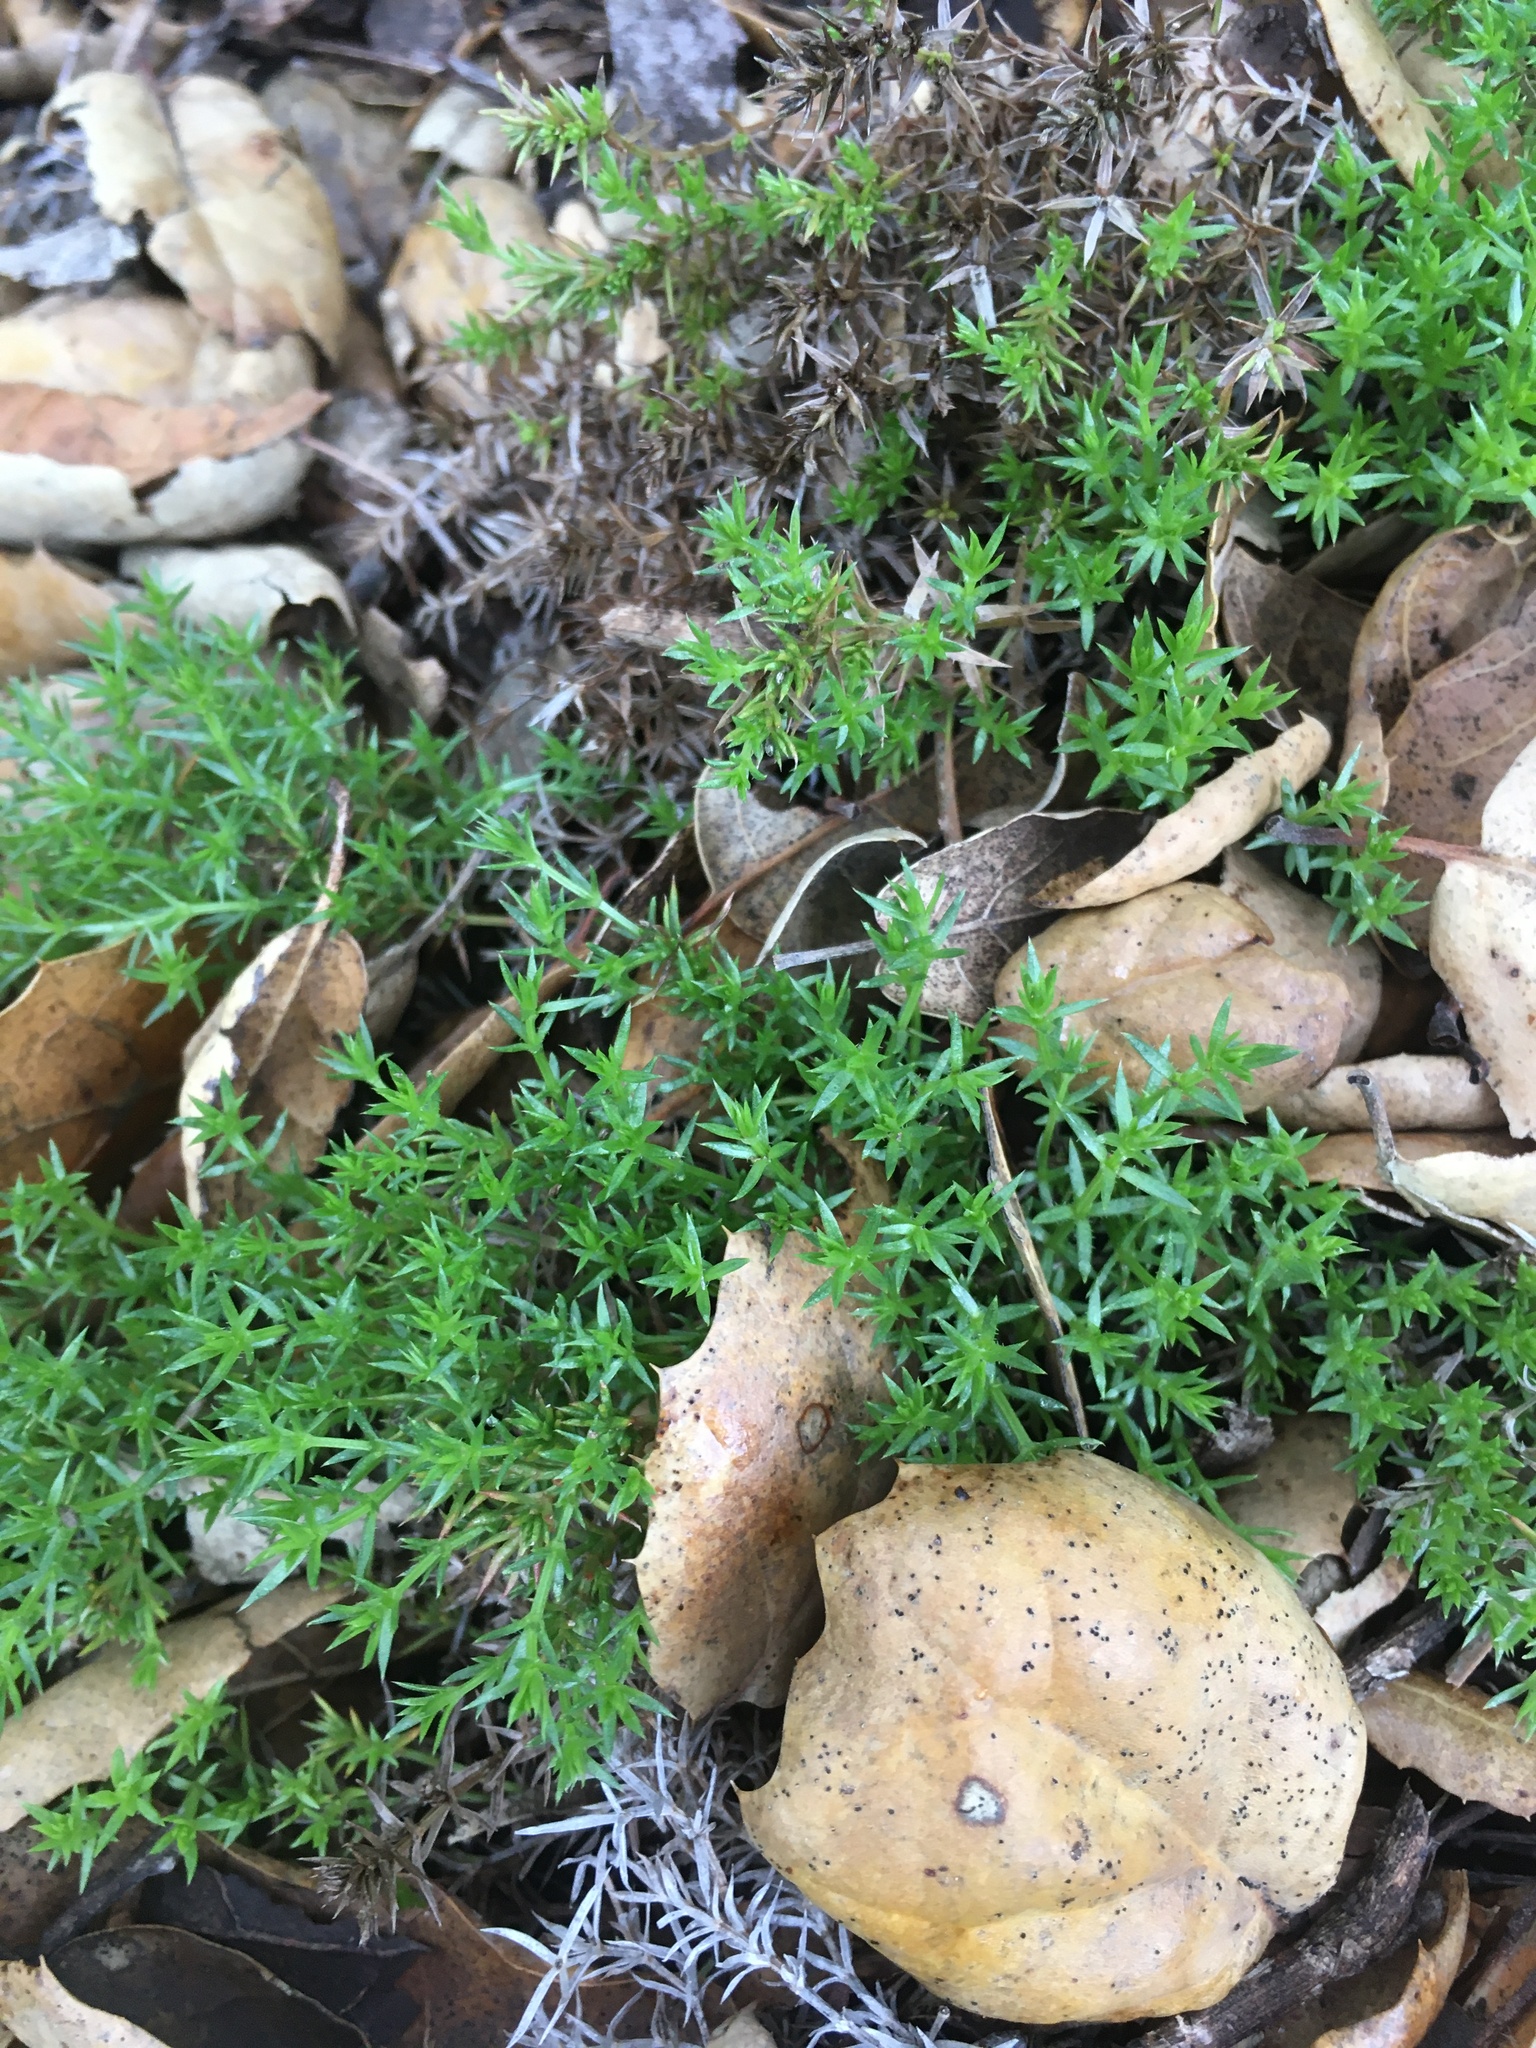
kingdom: Plantae
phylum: Tracheophyta
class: Magnoliopsida
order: Gentianales
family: Rubiaceae
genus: Galium
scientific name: Galium andrewsii
